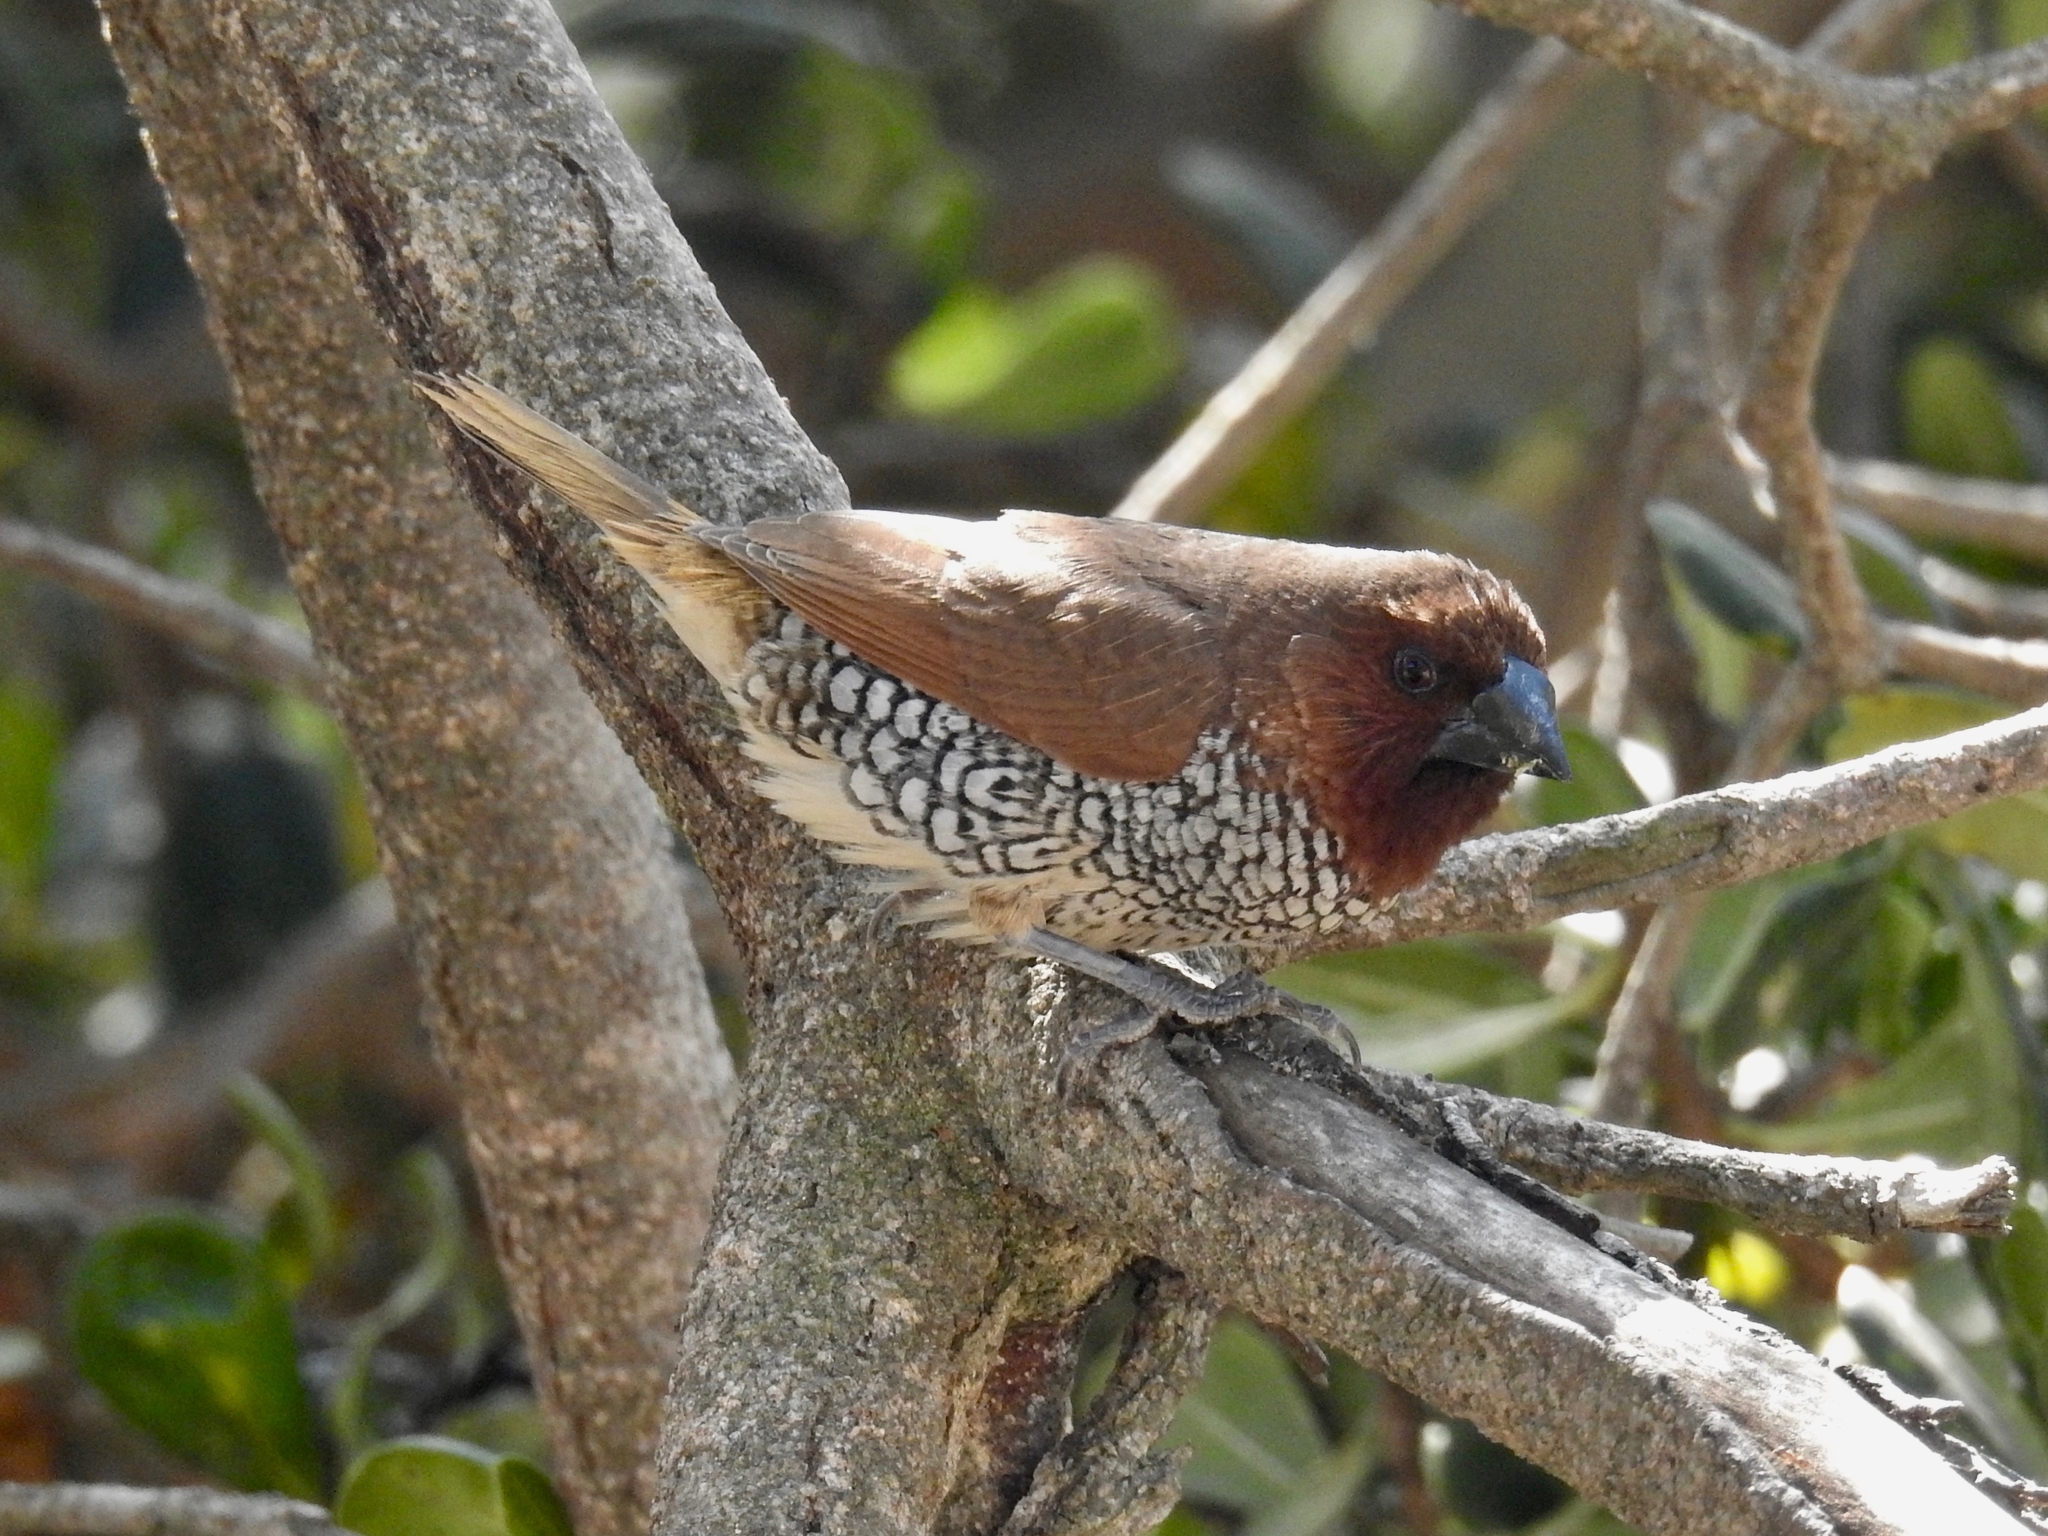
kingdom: Animalia
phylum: Chordata
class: Aves
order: Passeriformes
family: Estrildidae
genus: Lonchura
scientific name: Lonchura punctulata
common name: Scaly-breasted munia
